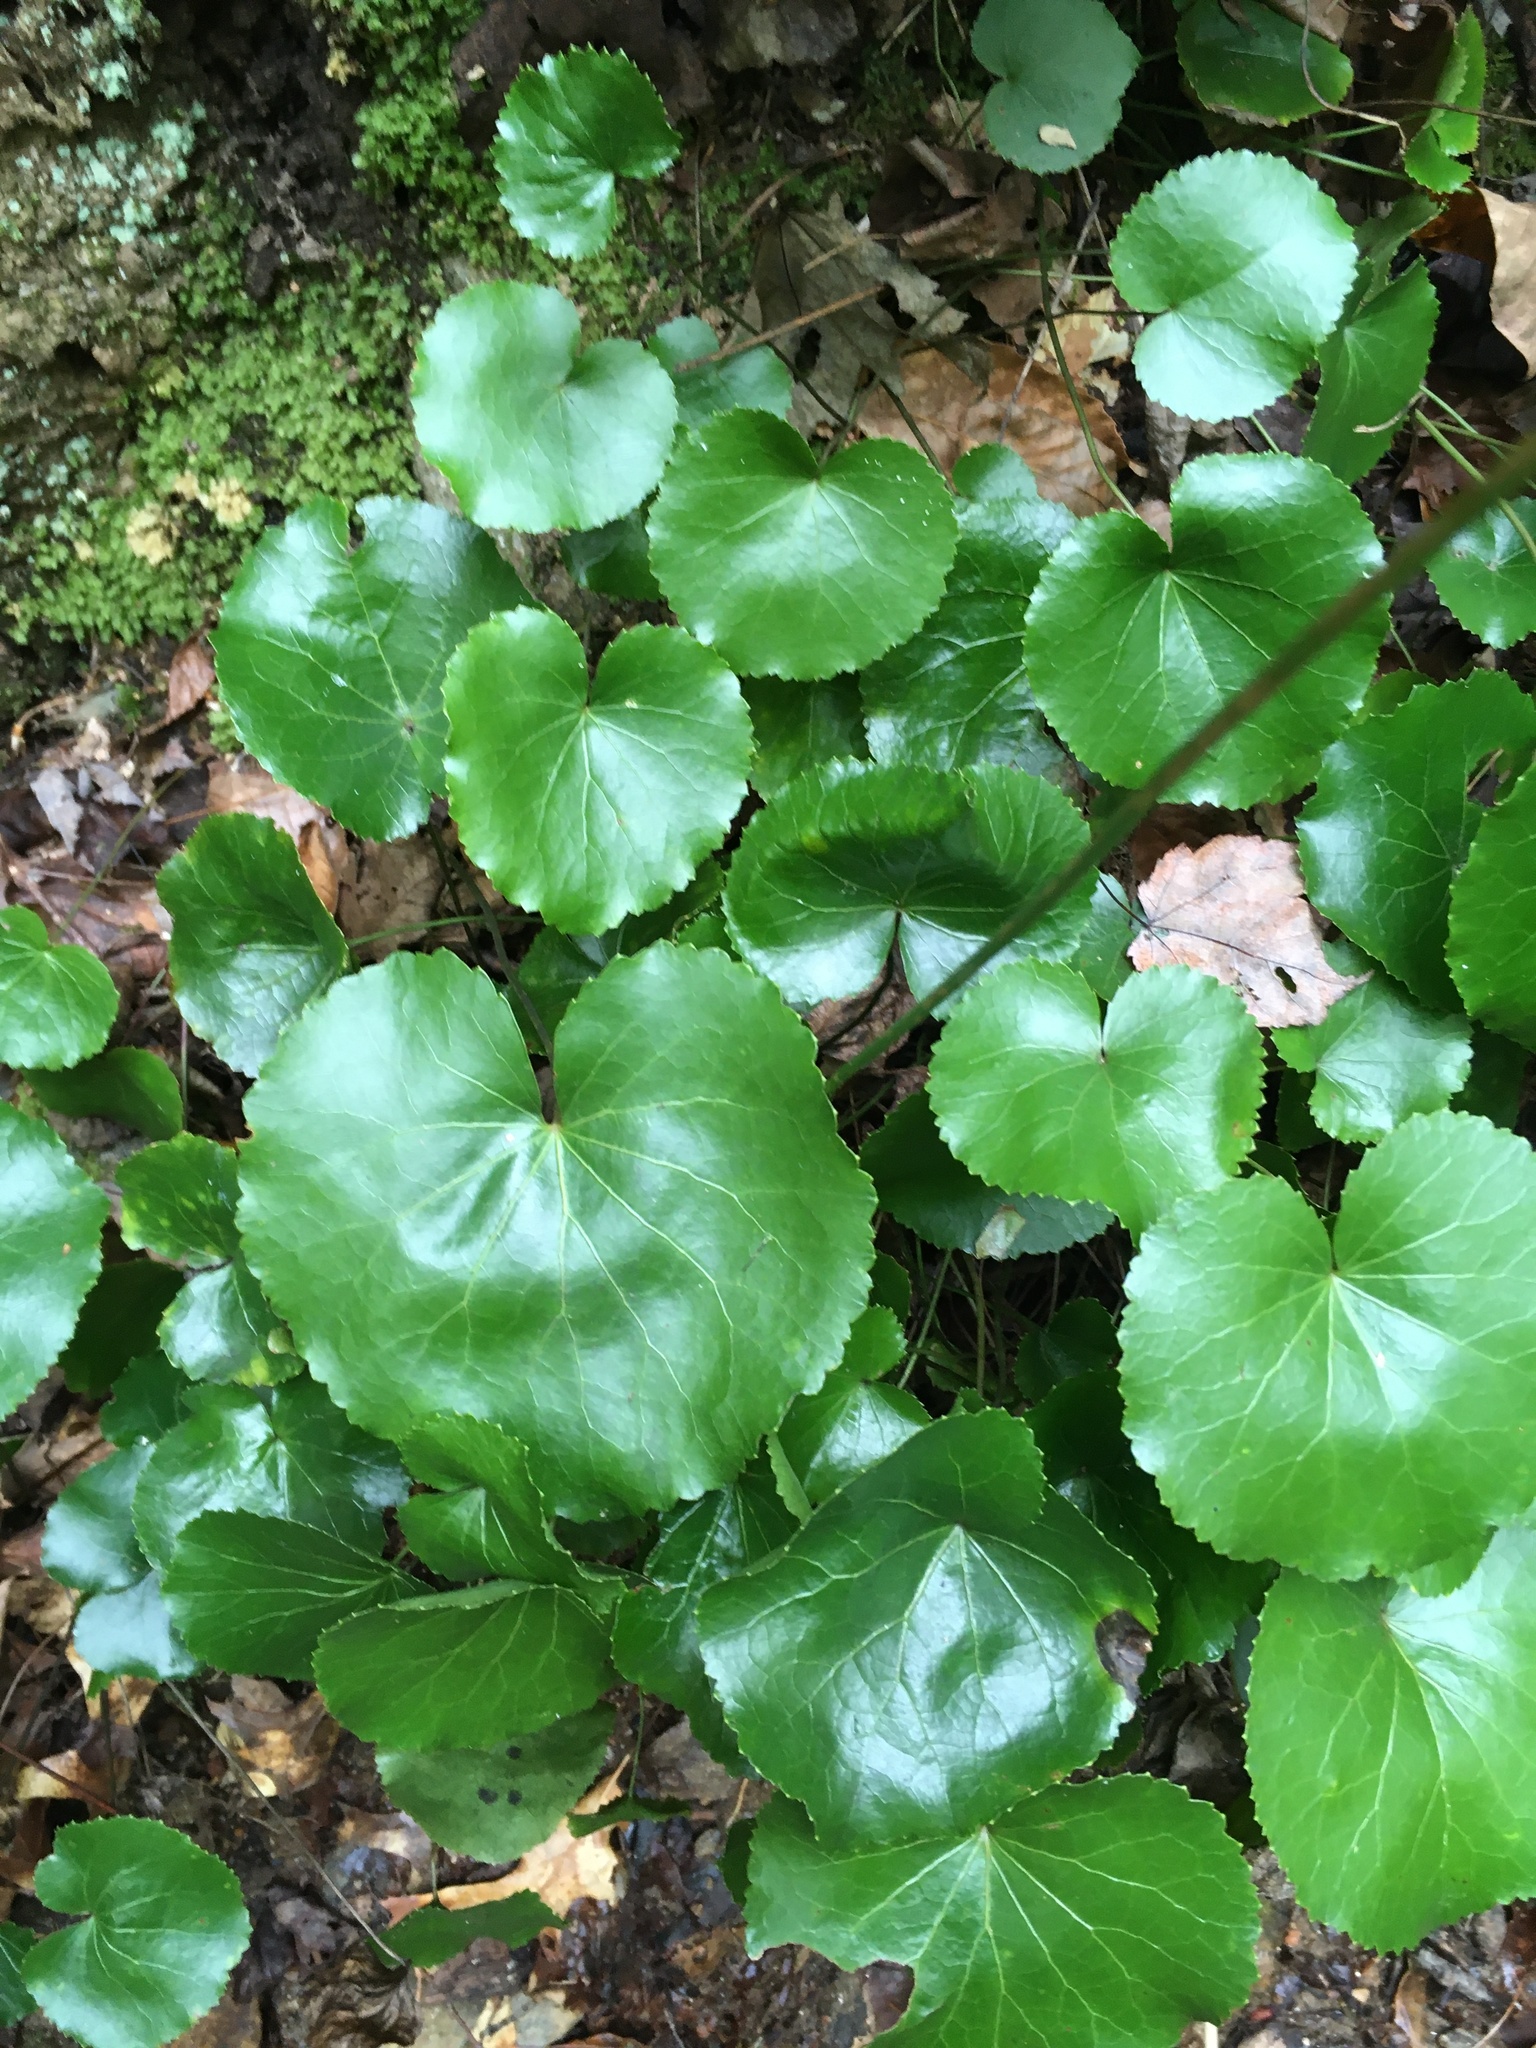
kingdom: Plantae
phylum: Tracheophyta
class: Magnoliopsida
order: Ericales
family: Diapensiaceae
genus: Galax
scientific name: Galax urceolata
